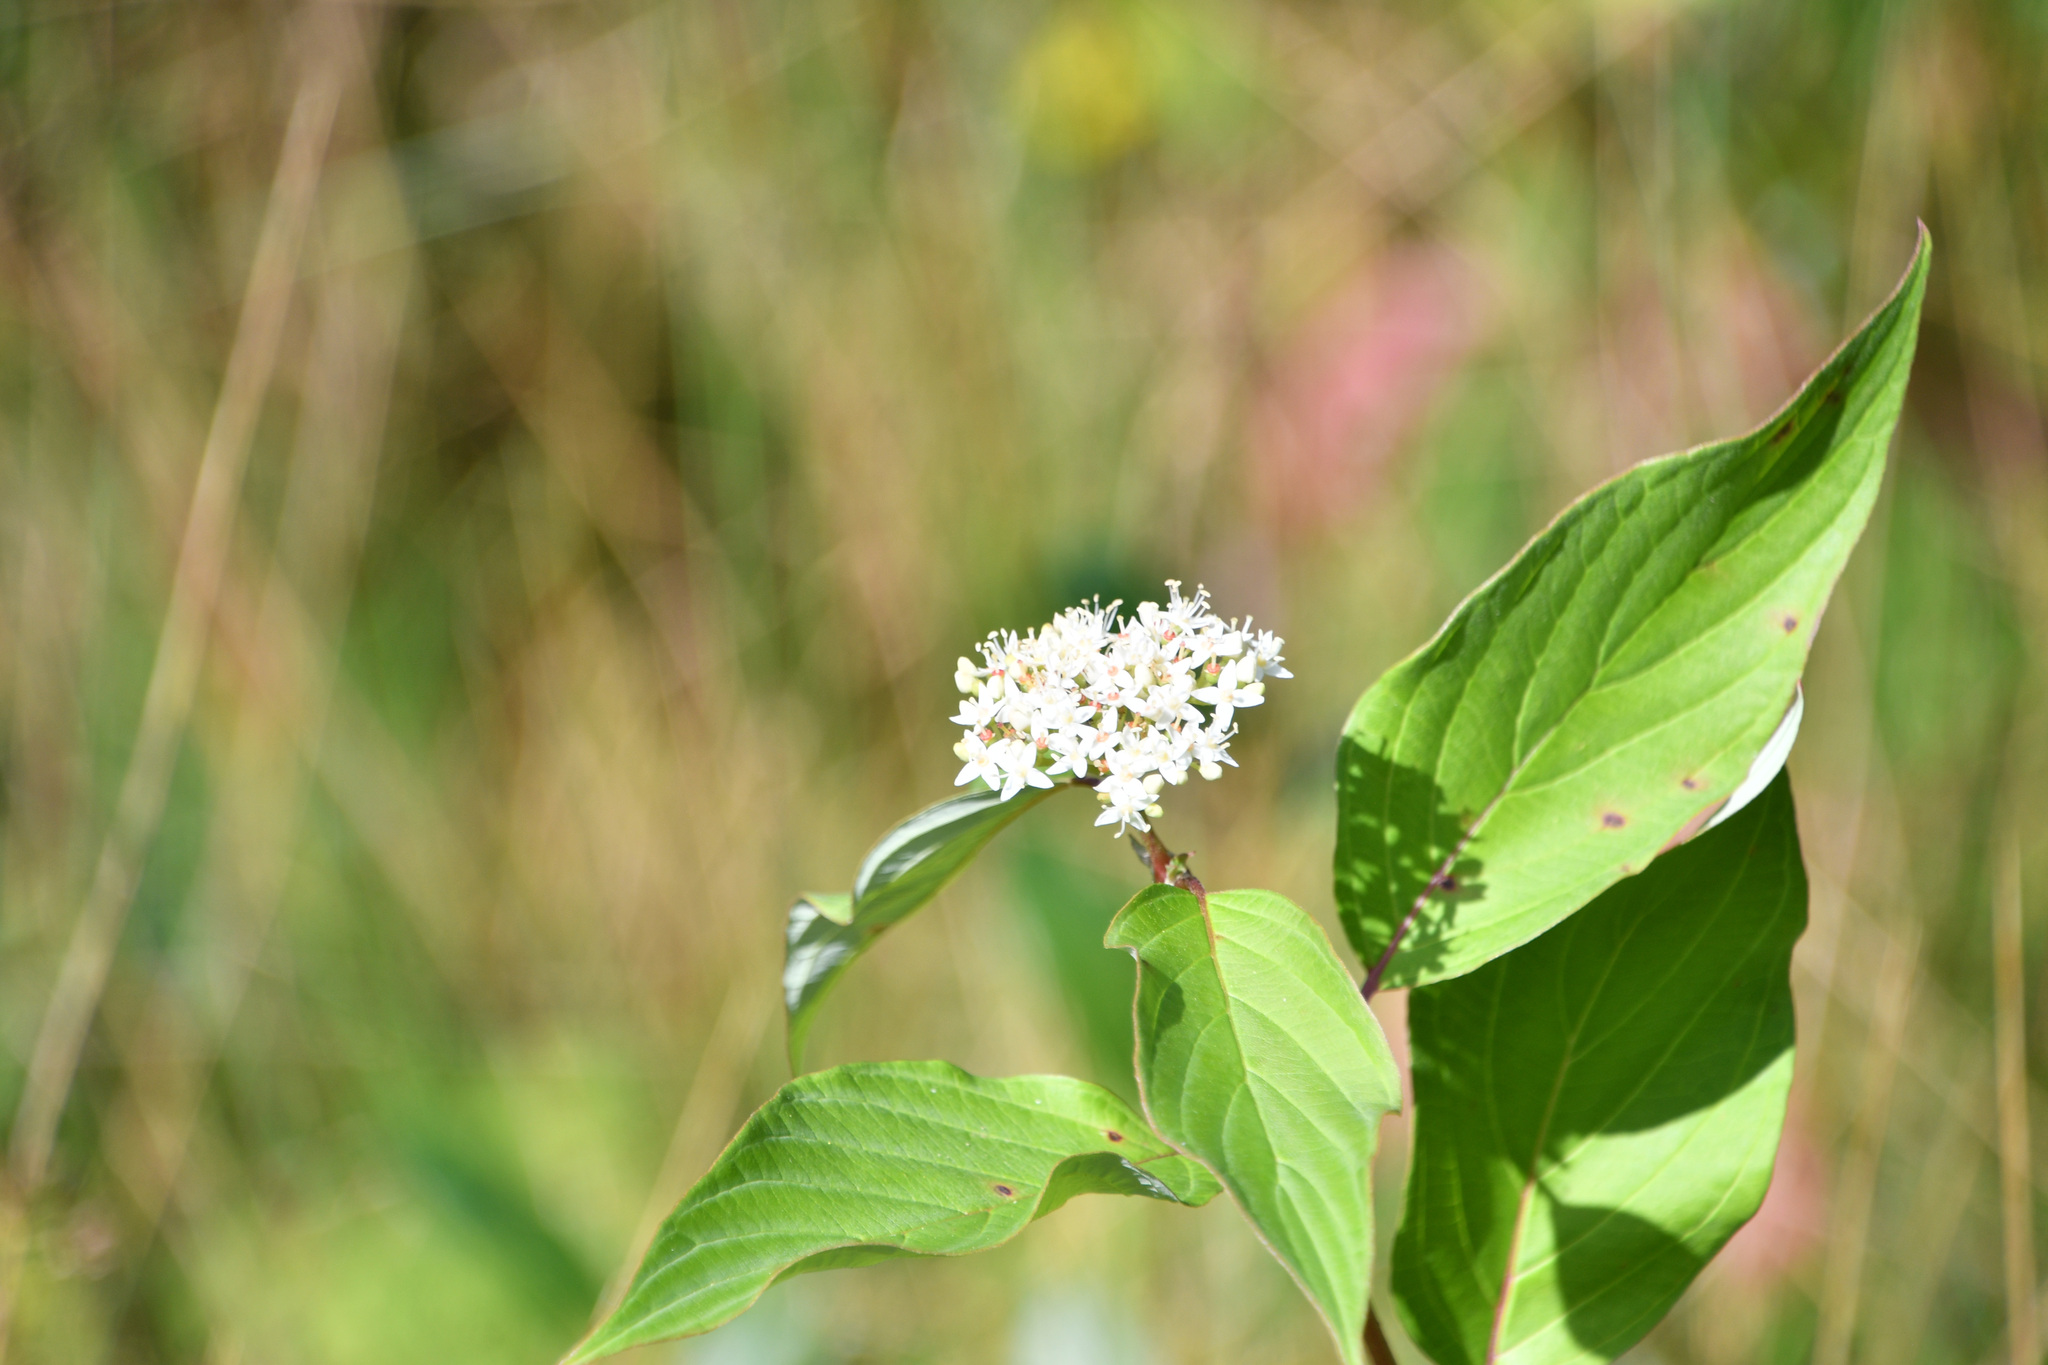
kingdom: Plantae
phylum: Tracheophyta
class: Magnoliopsida
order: Cornales
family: Cornaceae
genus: Cornus
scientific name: Cornus sericea
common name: Red-osier dogwood
